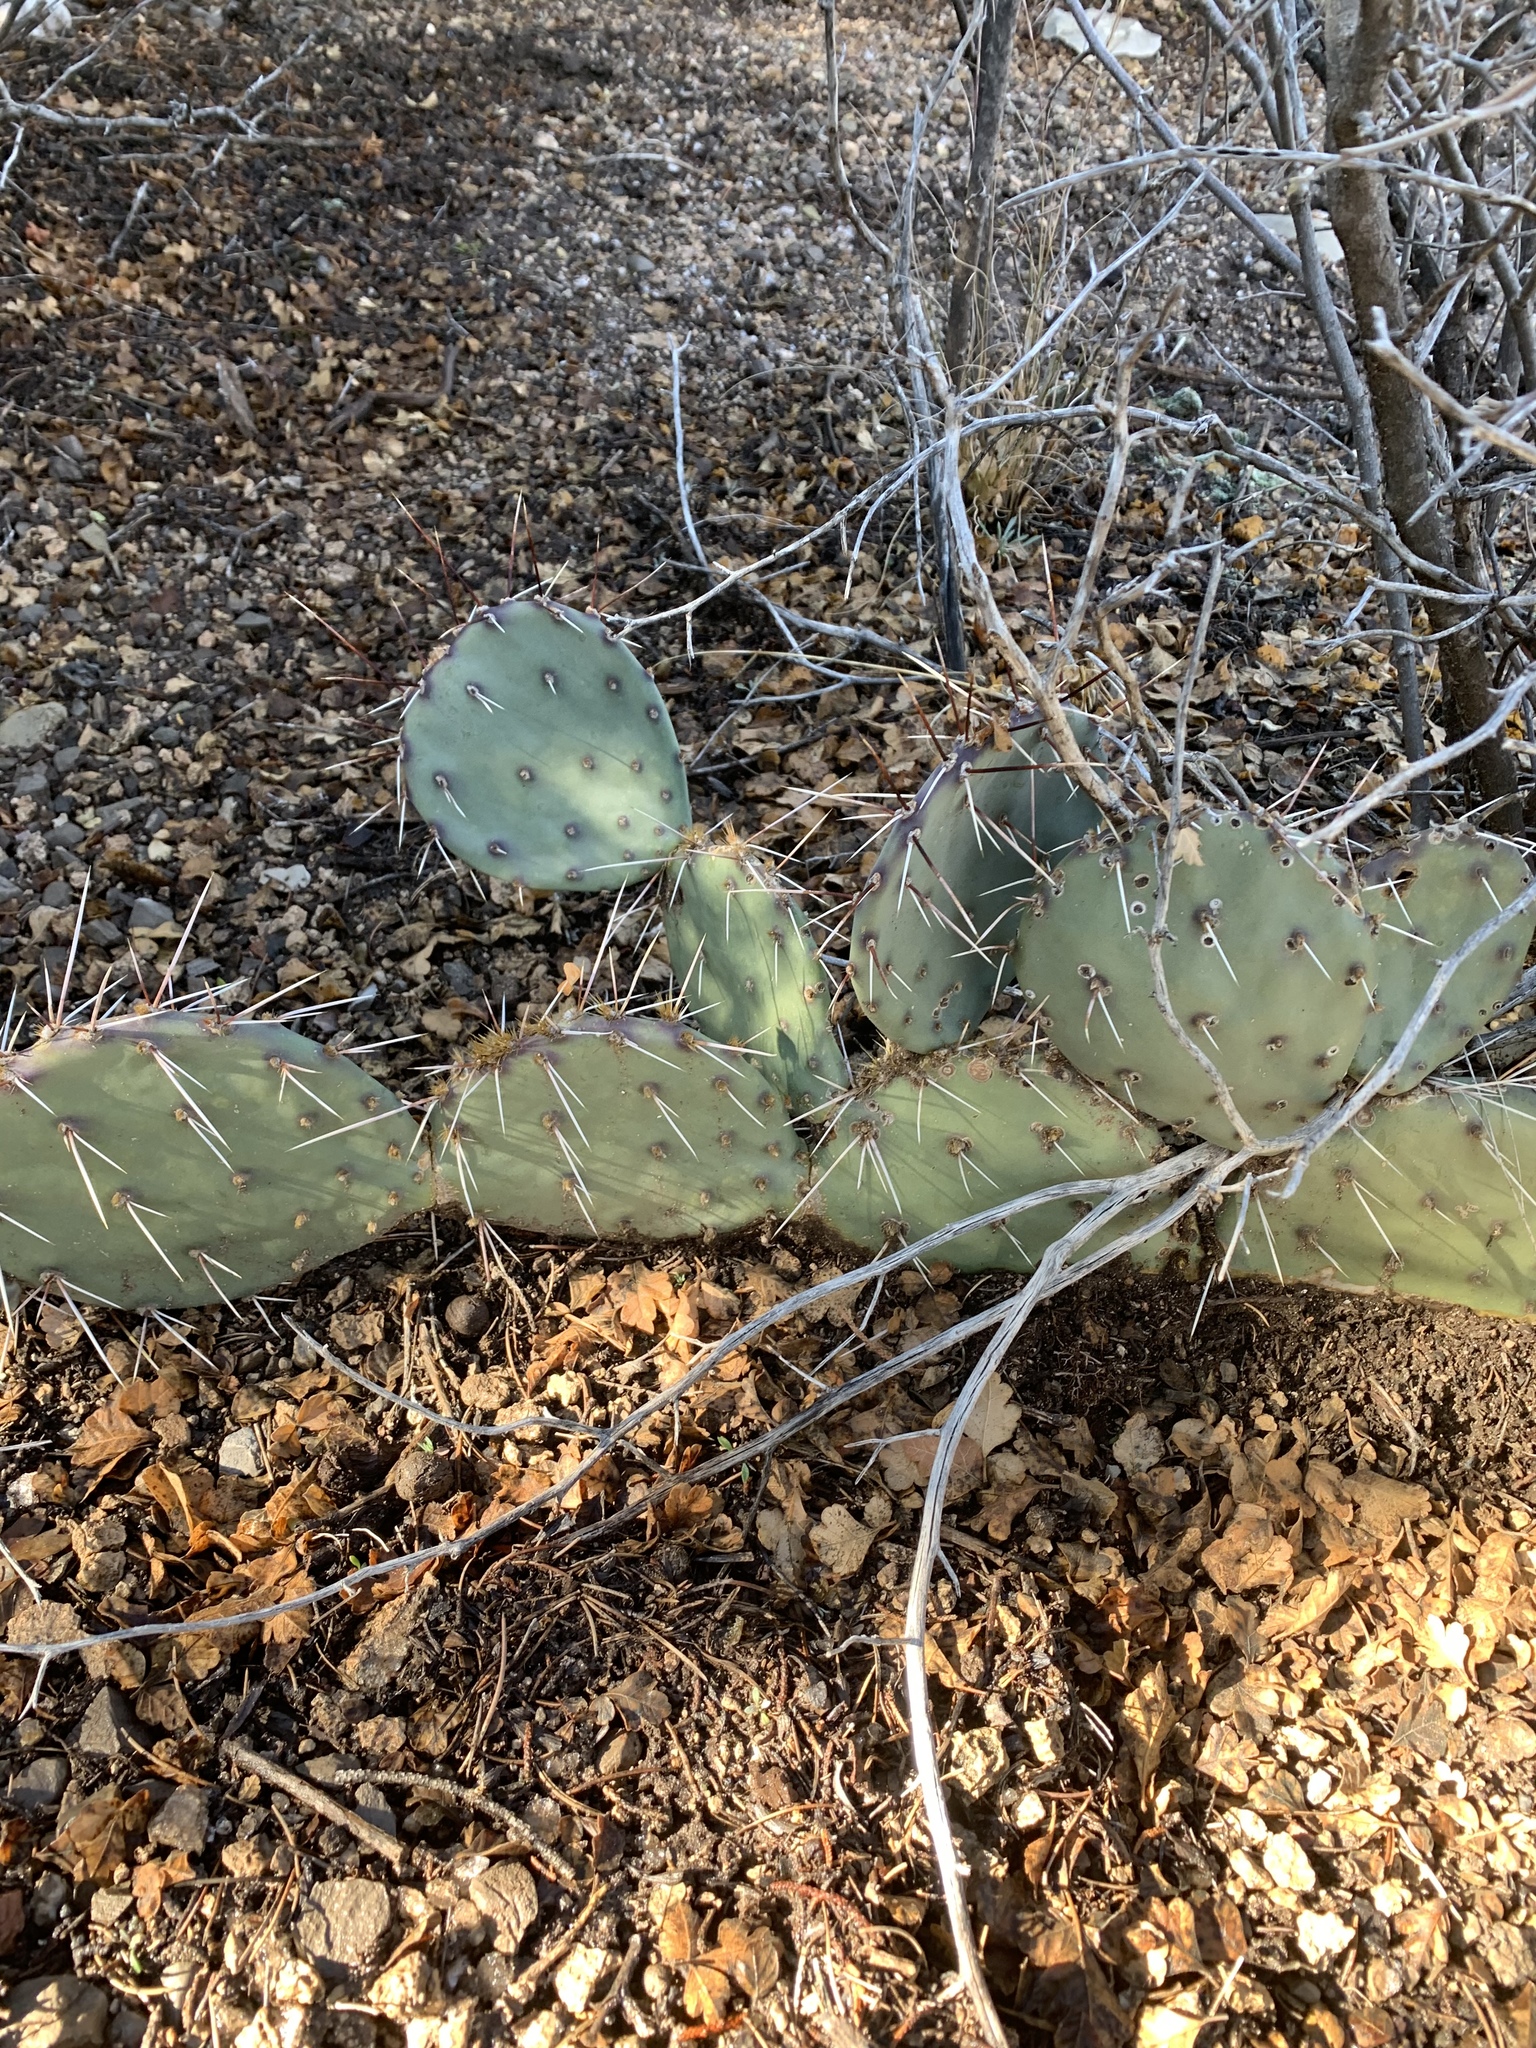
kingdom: Plantae
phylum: Tracheophyta
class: Magnoliopsida
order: Caryophyllales
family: Cactaceae
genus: Opuntia
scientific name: Opuntia phaeacantha
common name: New mexico prickly-pear
